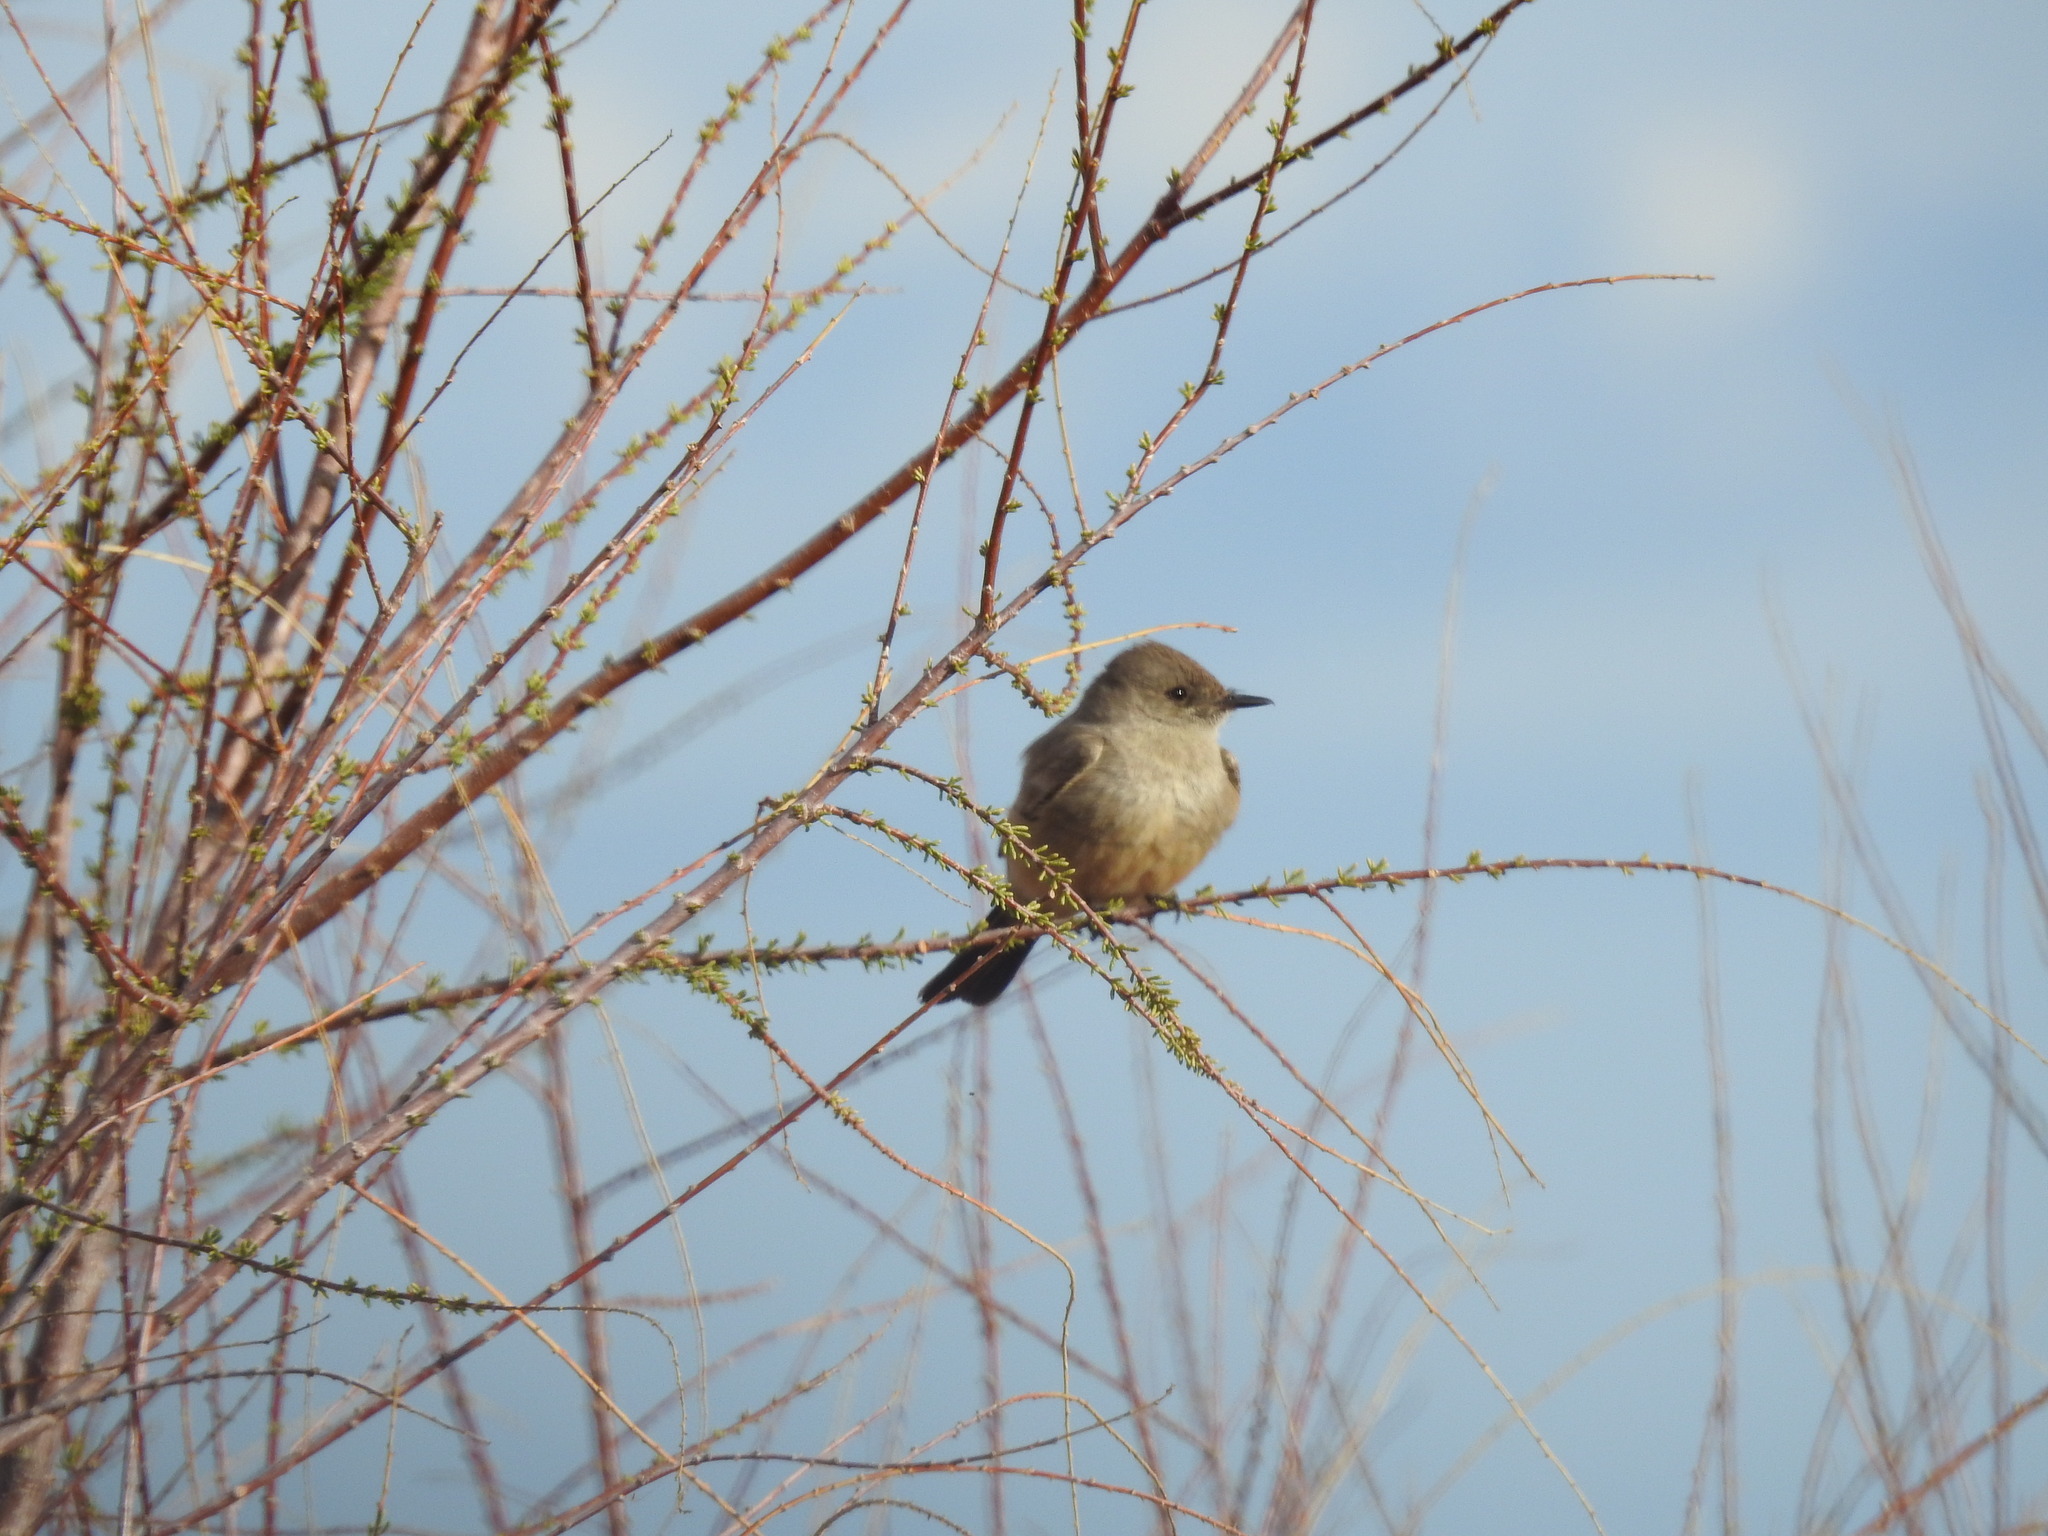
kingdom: Animalia
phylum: Chordata
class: Aves
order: Passeriformes
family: Tyrannidae
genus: Sayornis
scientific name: Sayornis saya
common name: Say's phoebe
